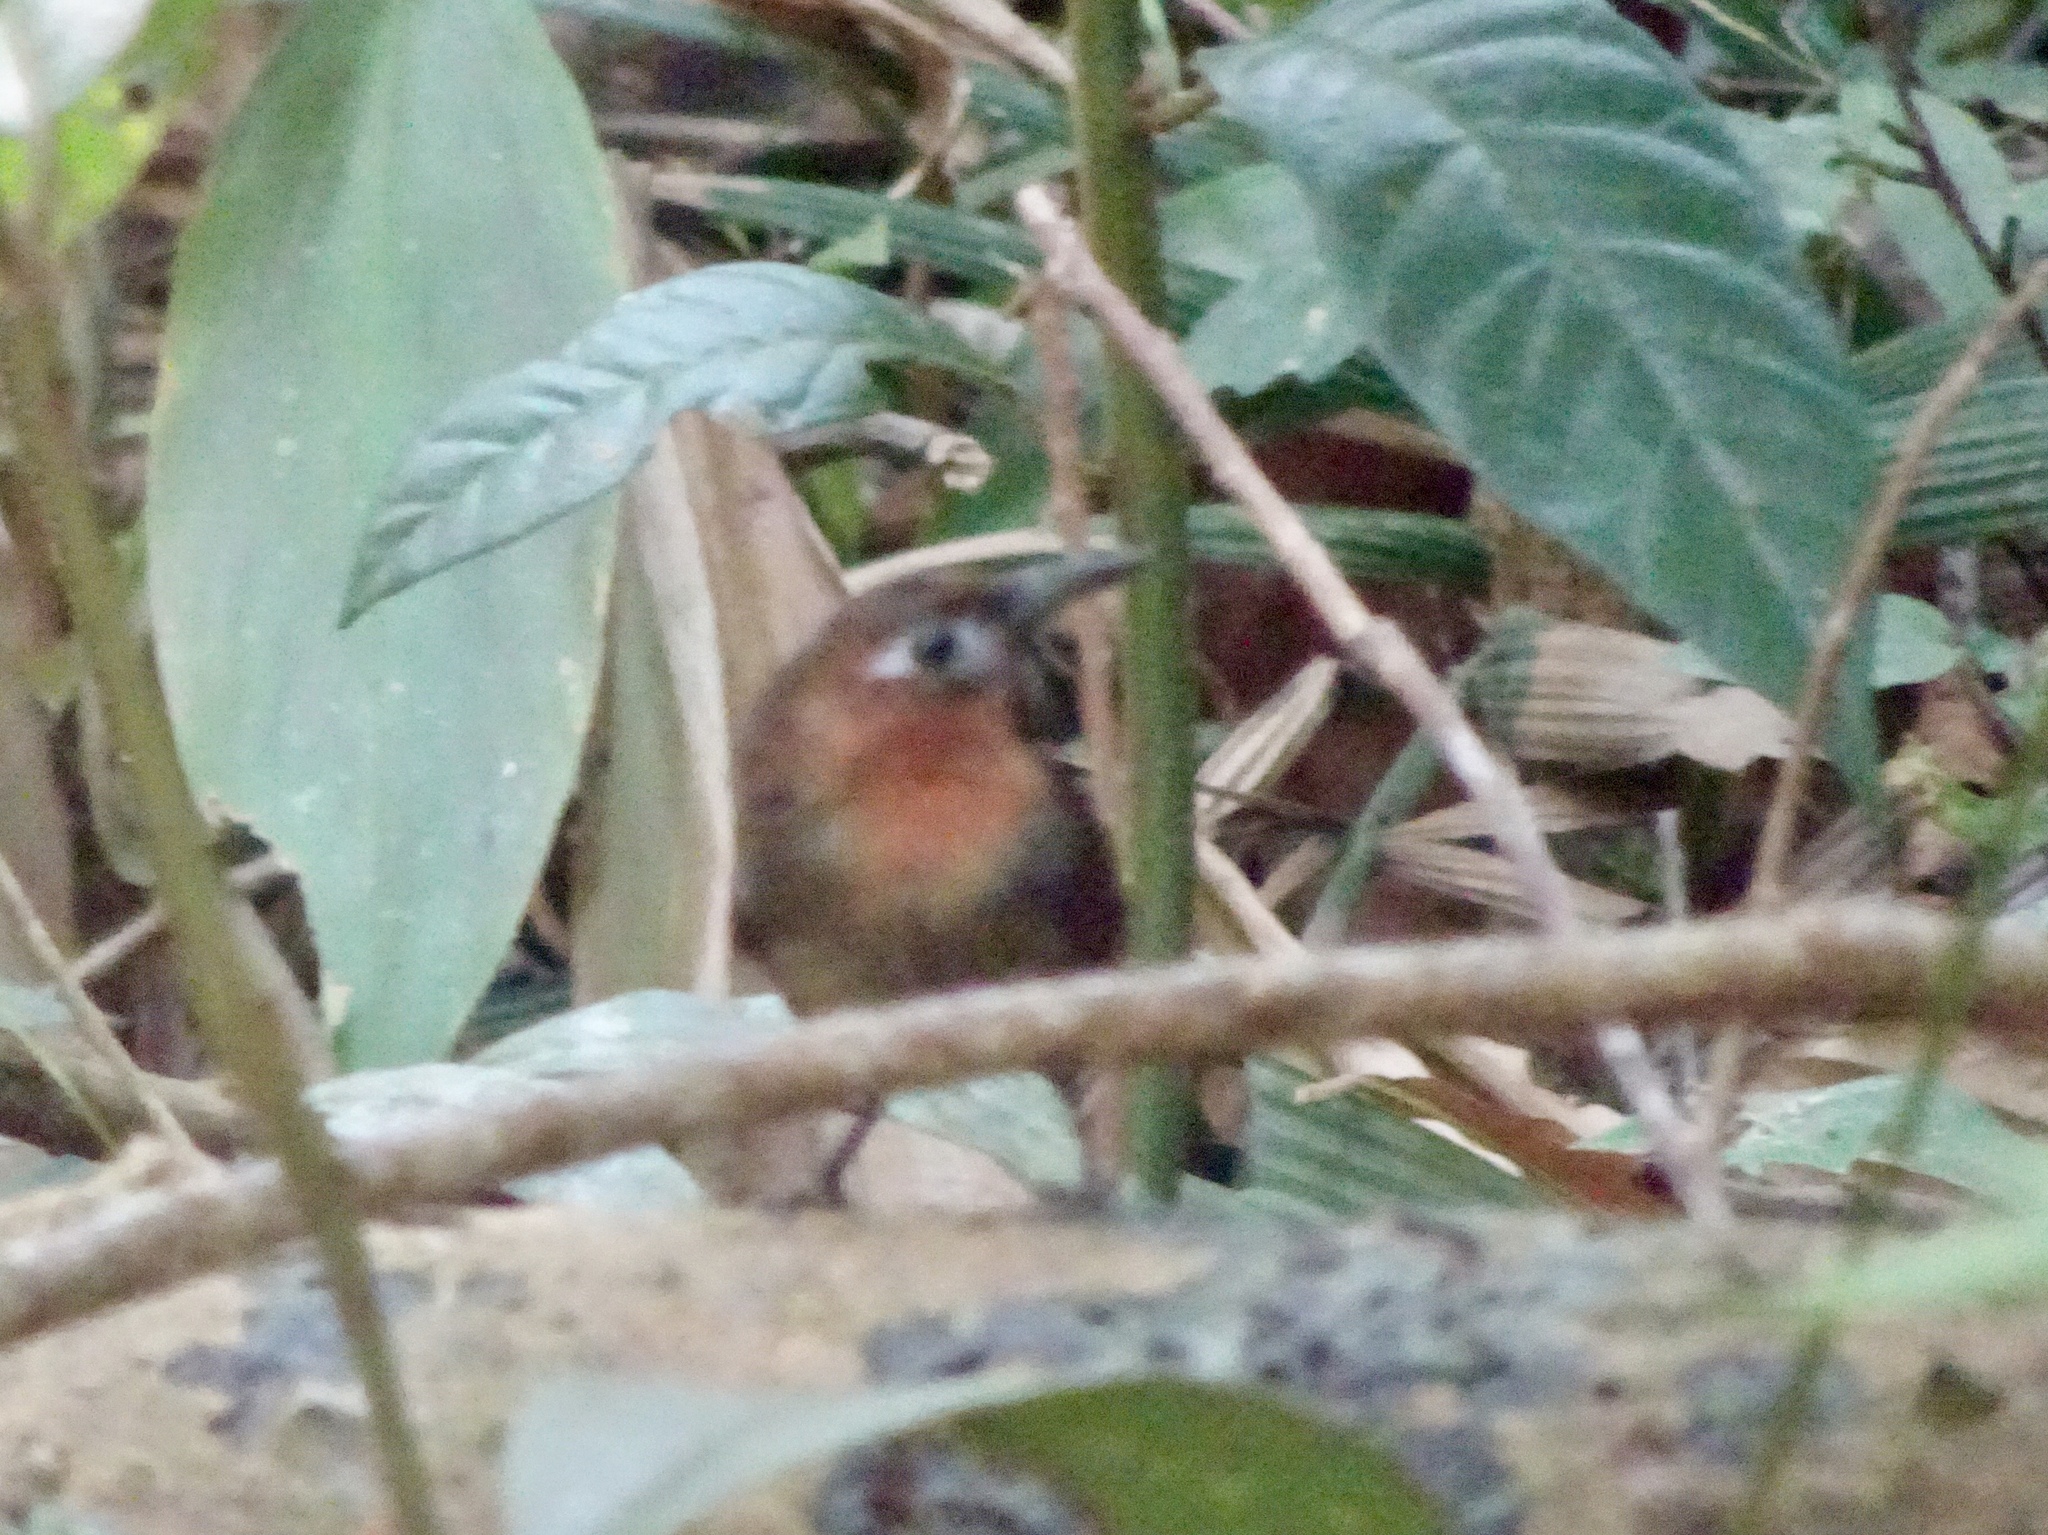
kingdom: Animalia
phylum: Chordata
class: Aves
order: Passeriformes
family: Troglodytidae
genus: Cyphorhinus
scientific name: Cyphorhinus phaeocephalus
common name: Song wren
